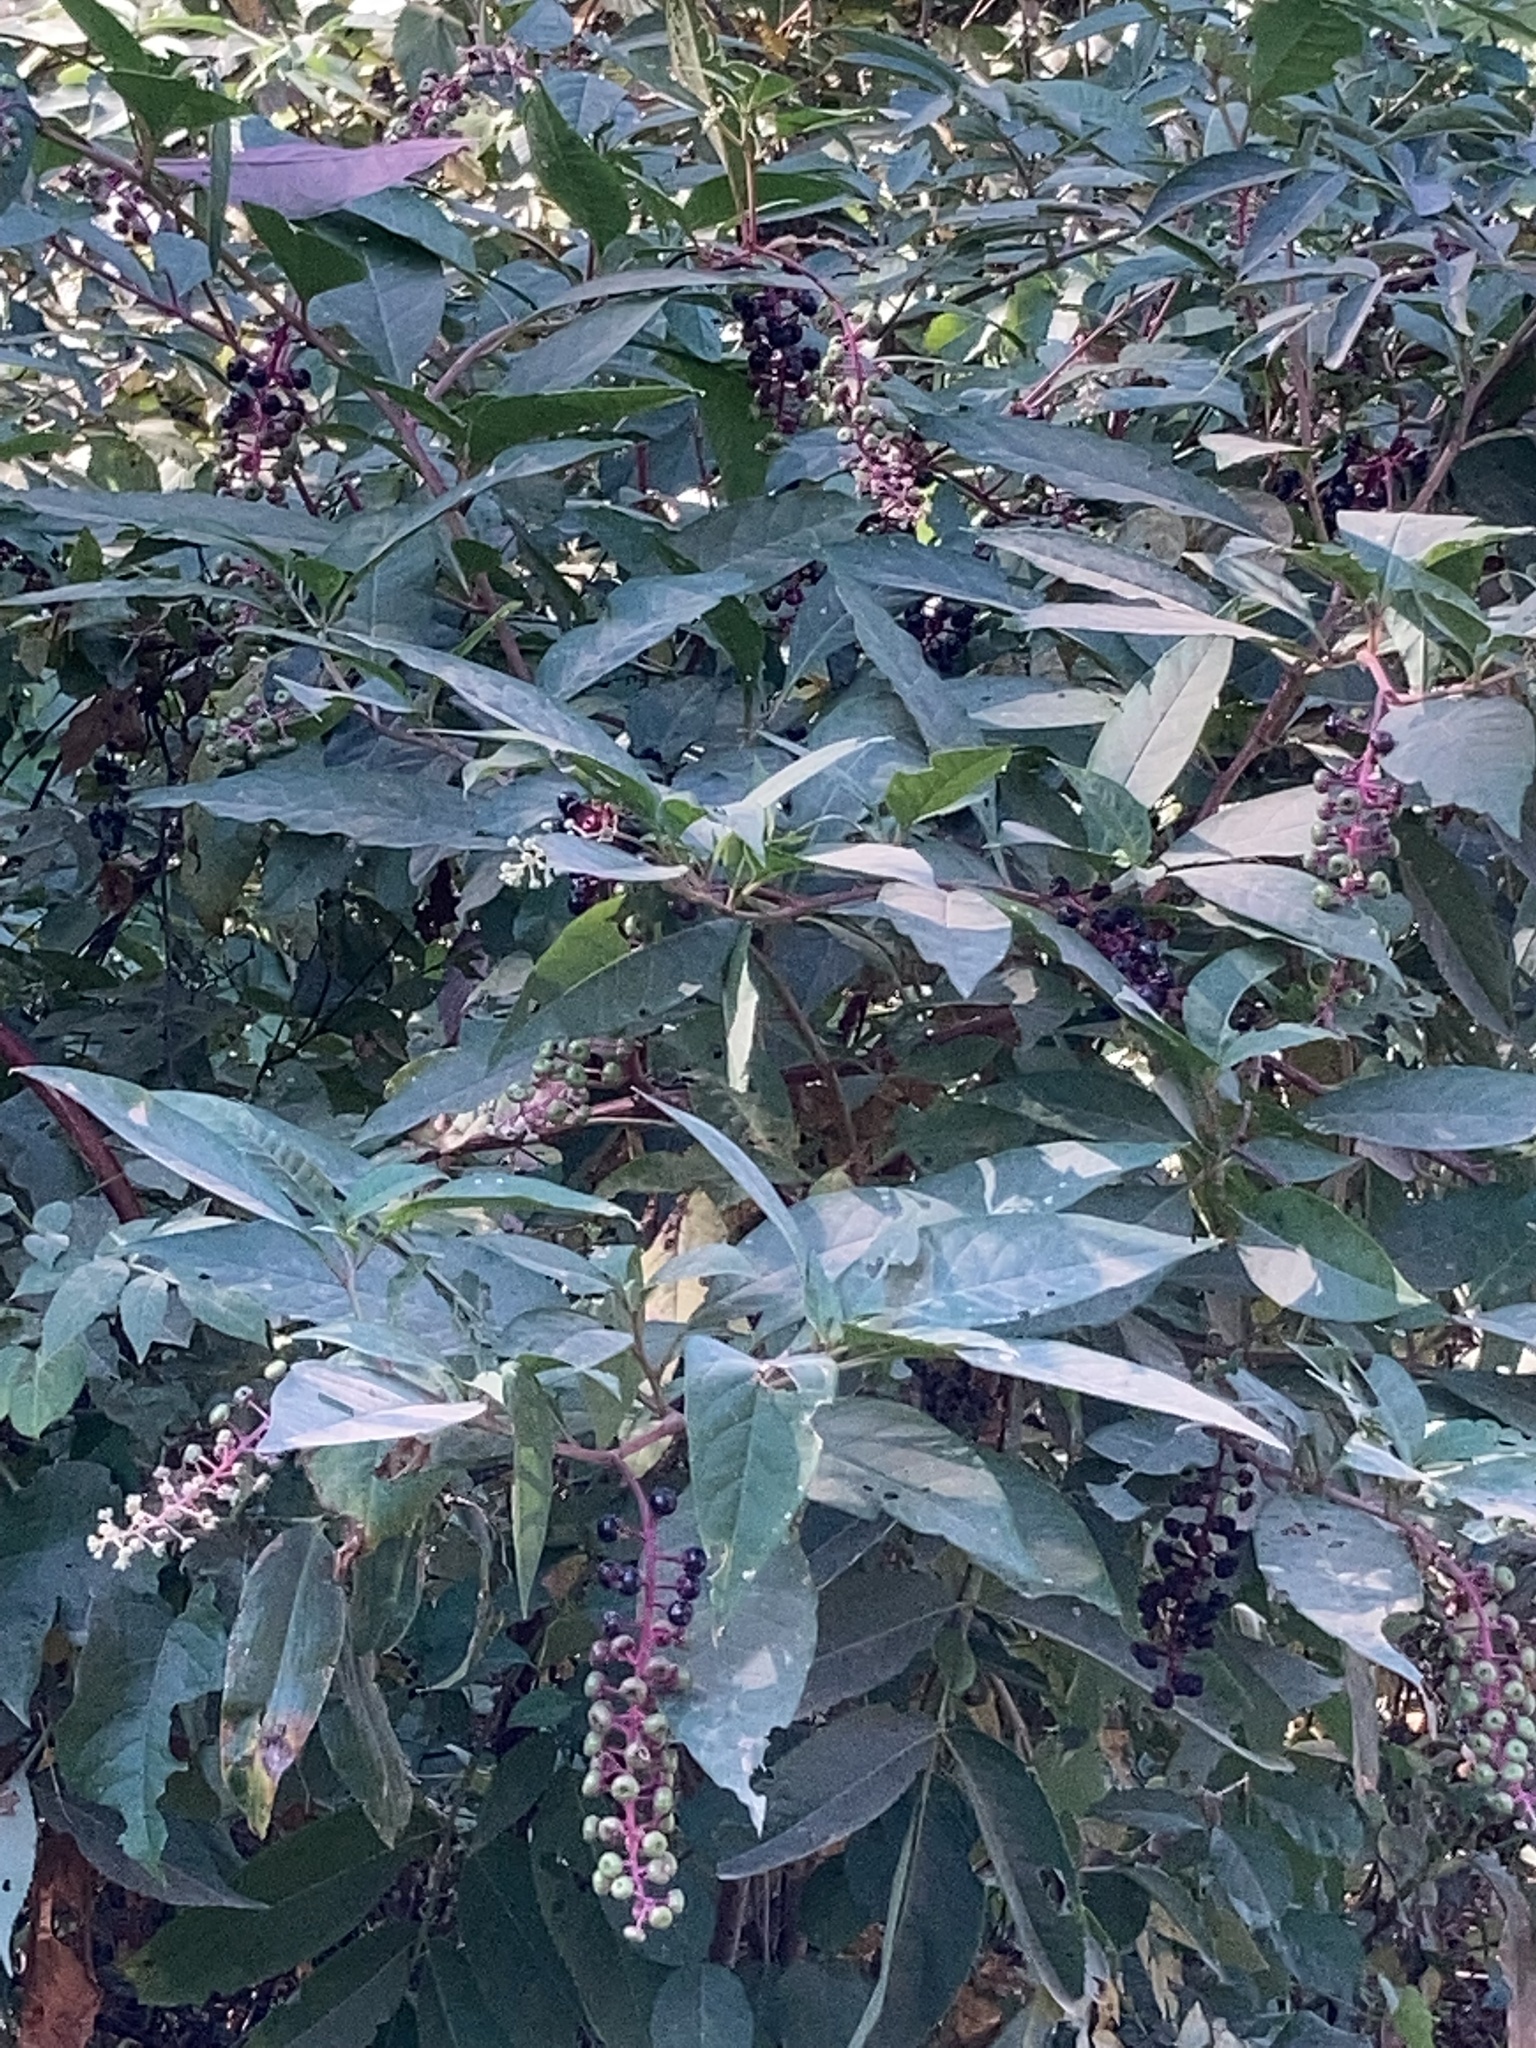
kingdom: Plantae
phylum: Tracheophyta
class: Magnoliopsida
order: Caryophyllales
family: Phytolaccaceae
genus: Phytolacca
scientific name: Phytolacca americana
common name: American pokeweed
